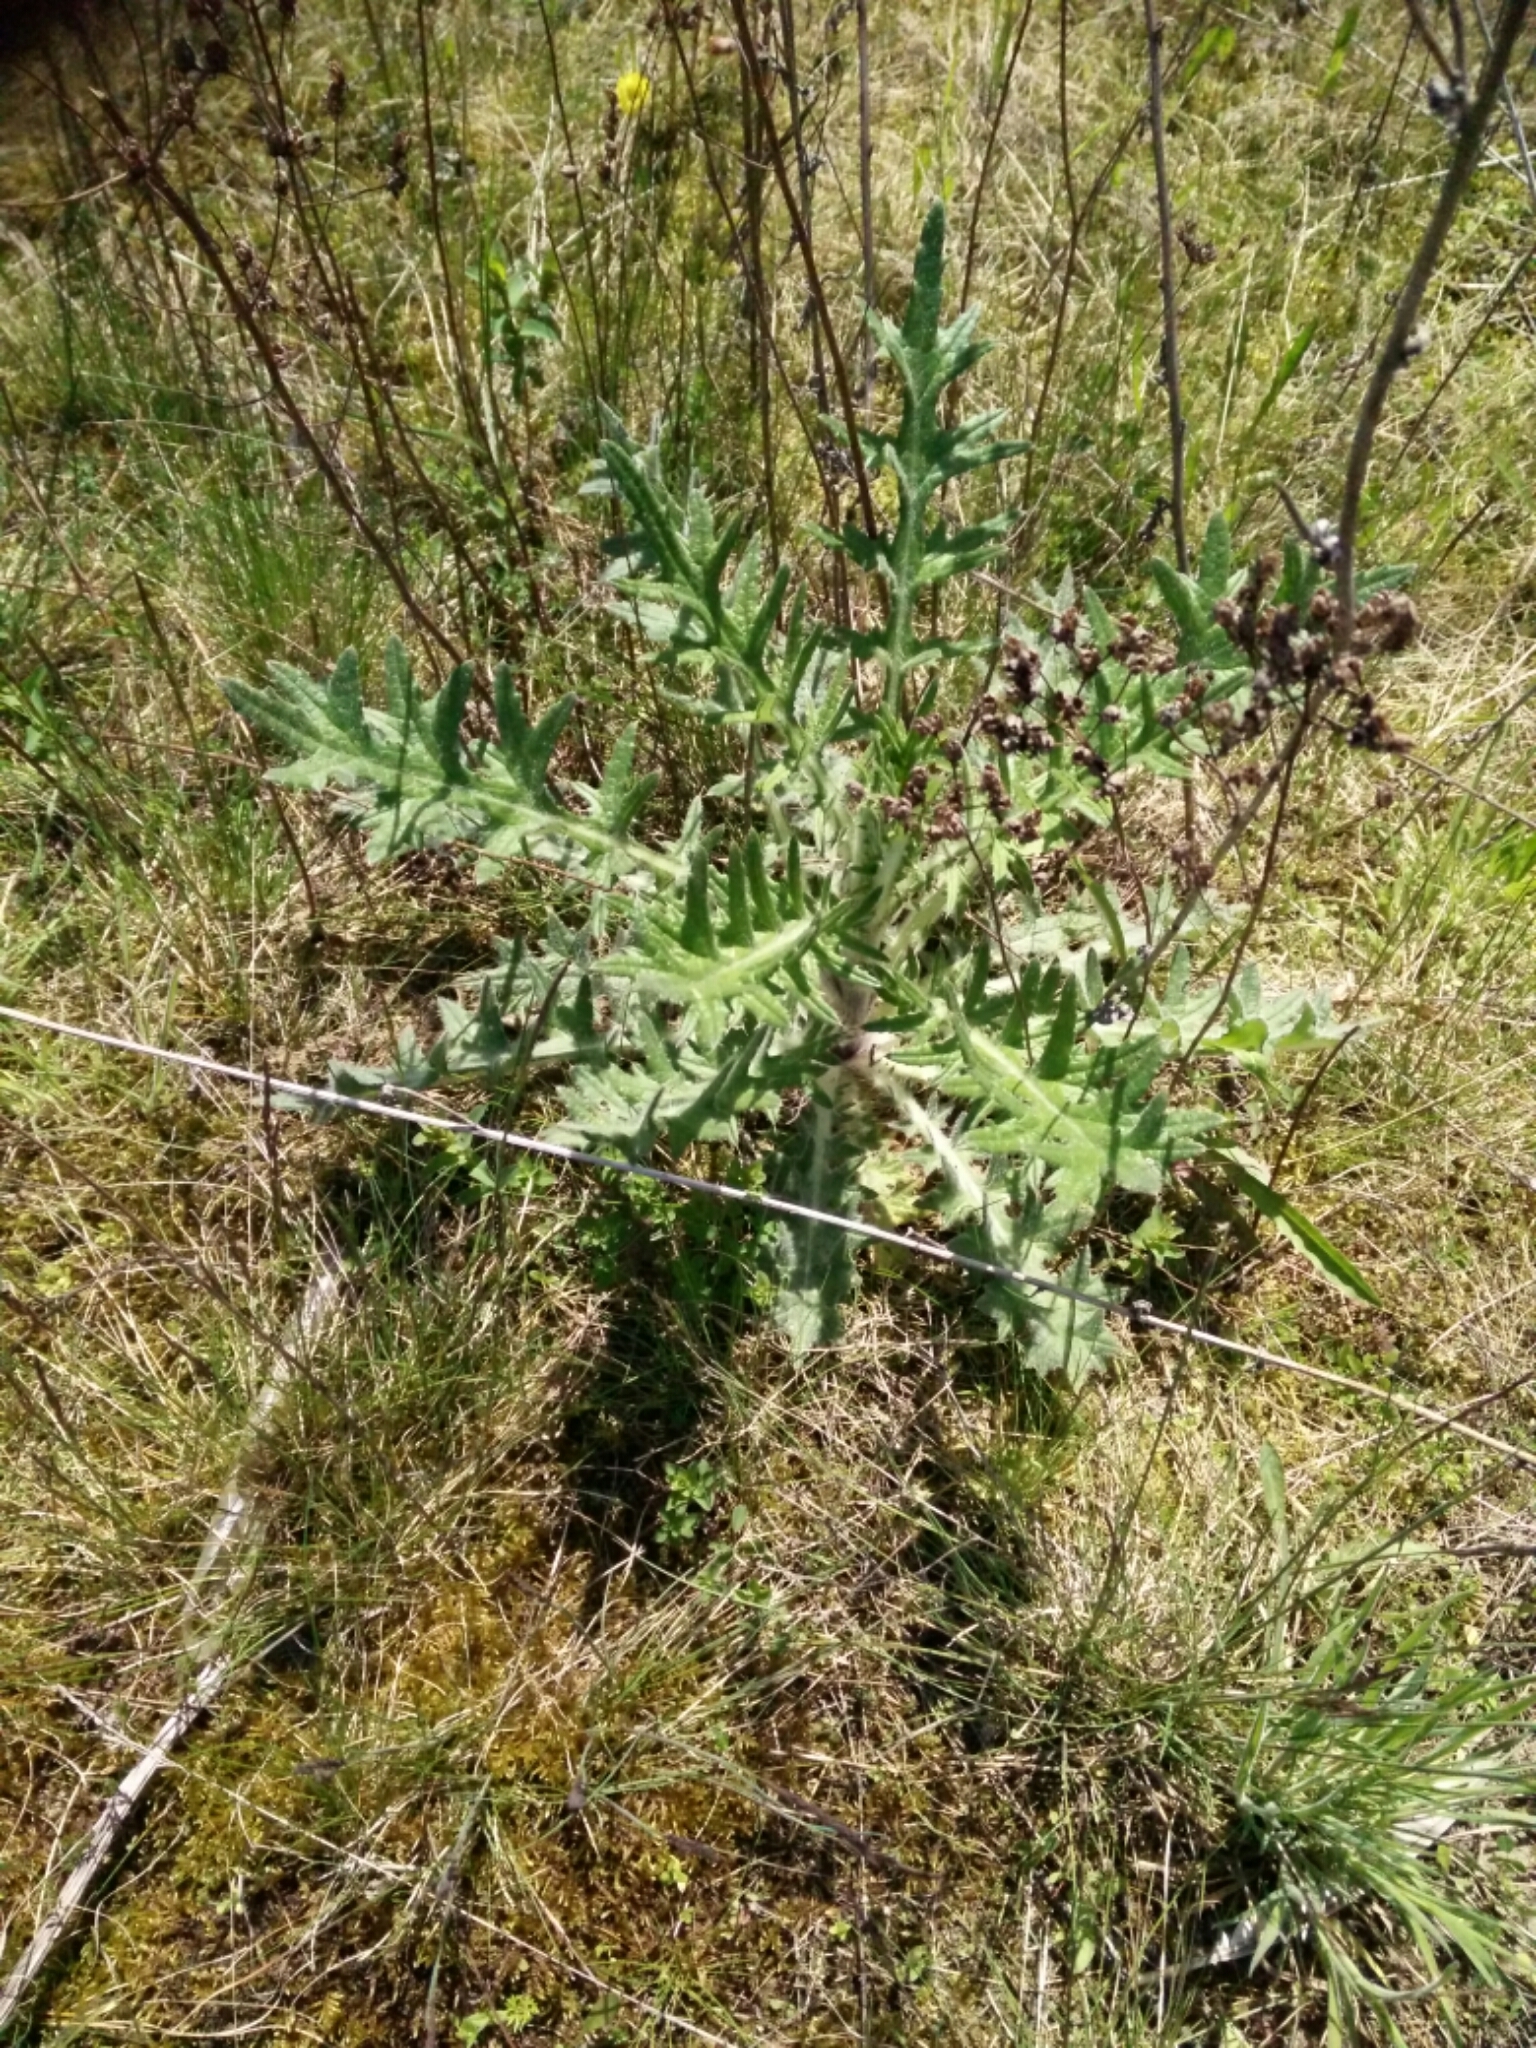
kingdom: Plantae
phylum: Tracheophyta
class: Magnoliopsida
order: Asterales
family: Asteraceae
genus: Cirsium
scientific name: Cirsium vulgare
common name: Bull thistle
